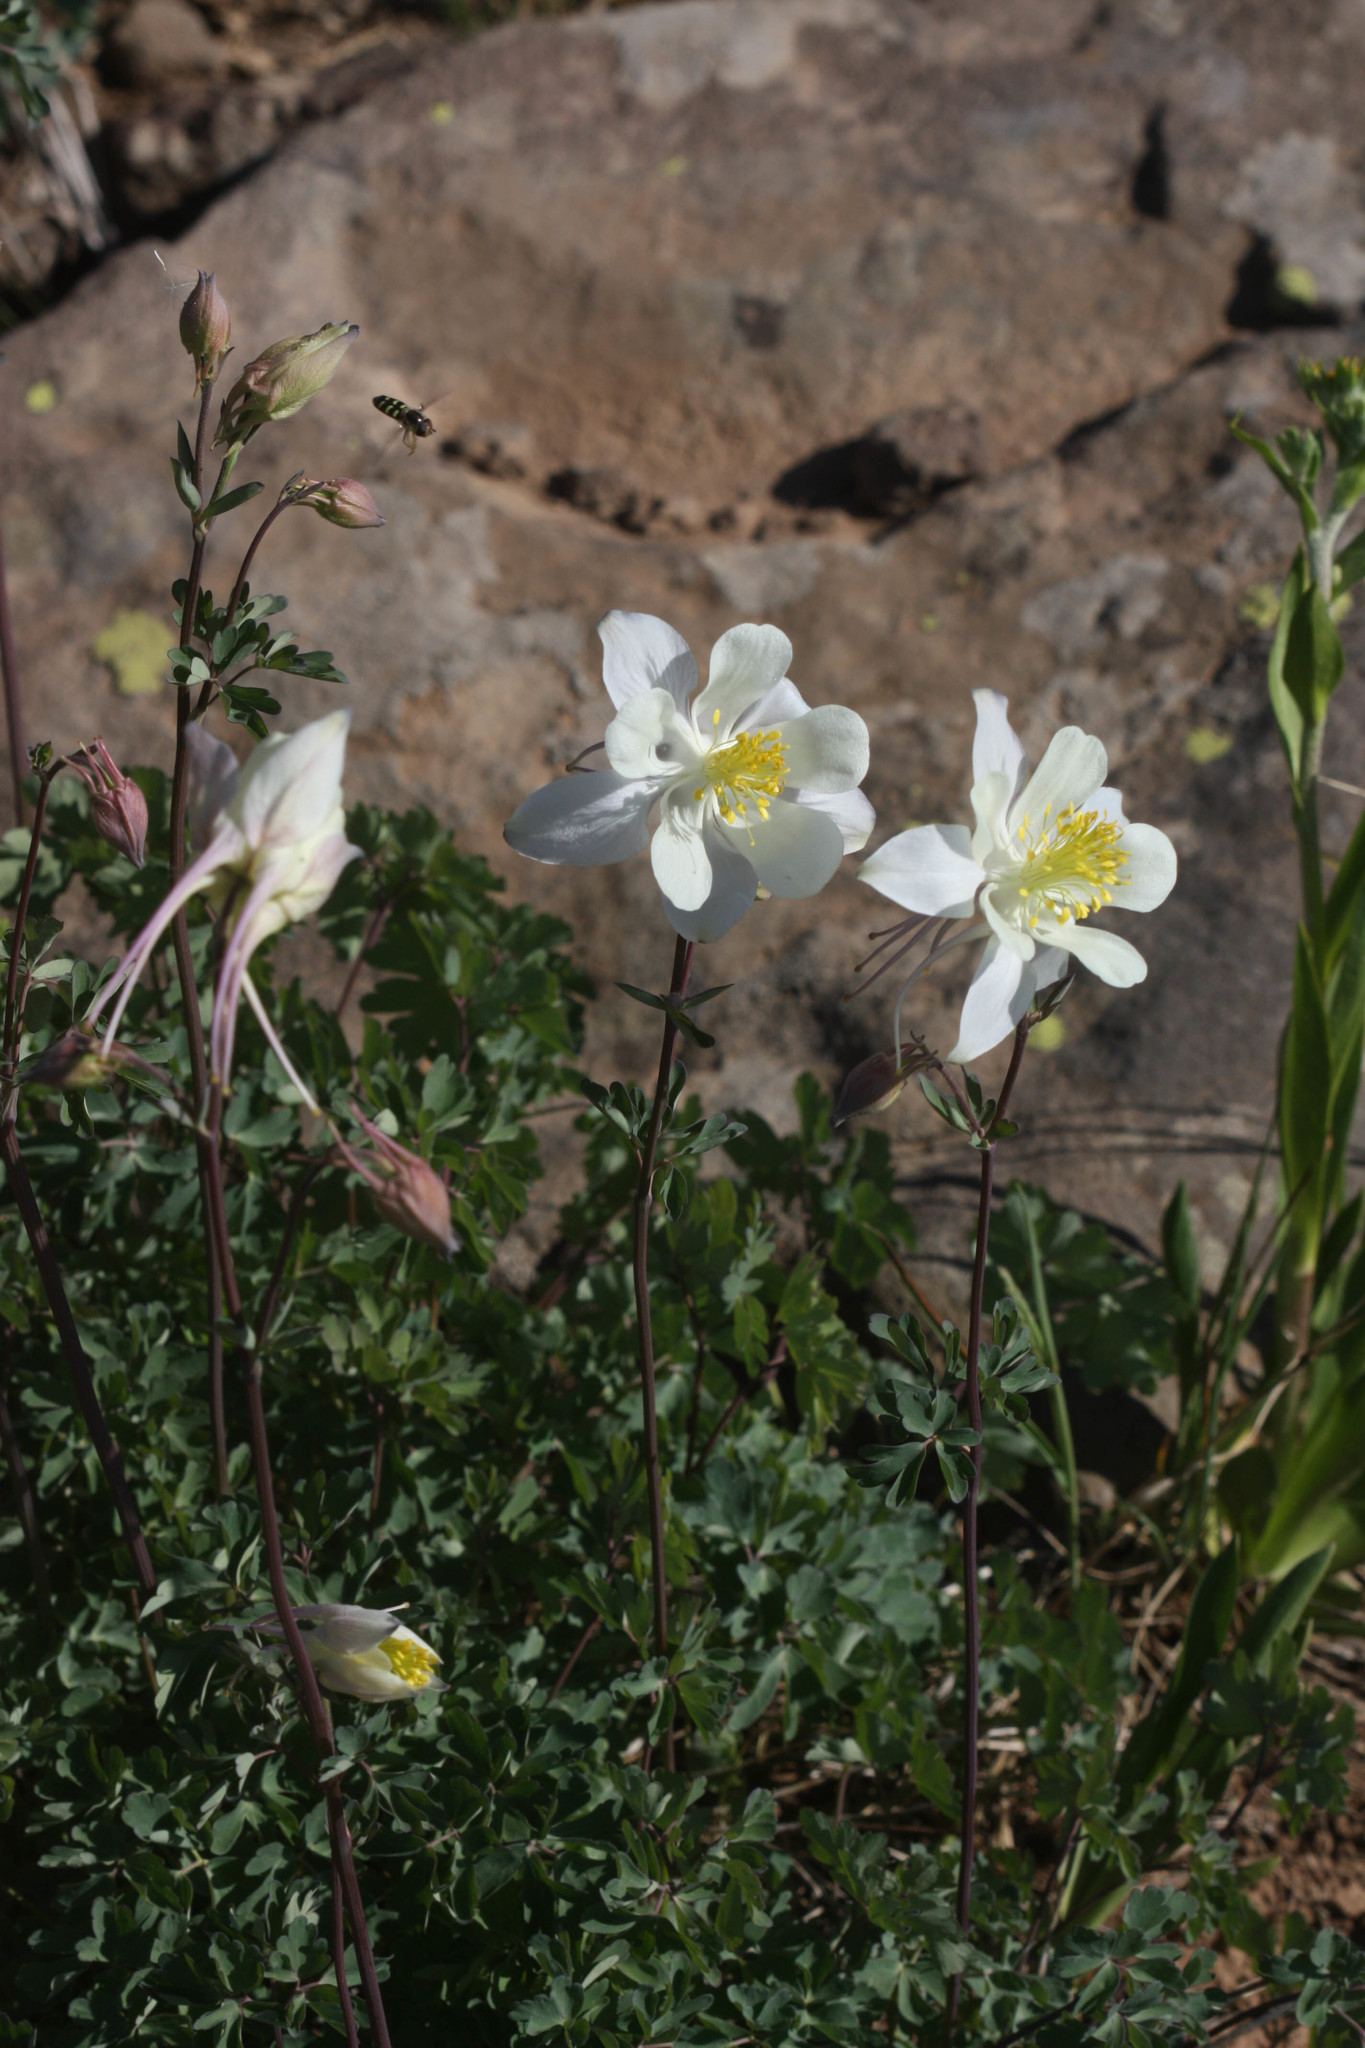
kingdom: Plantae
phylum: Tracheophyta
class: Magnoliopsida
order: Ranunculales
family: Ranunculaceae
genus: Aquilegia
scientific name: Aquilegia coerulea
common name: Rocky mountain columbine
